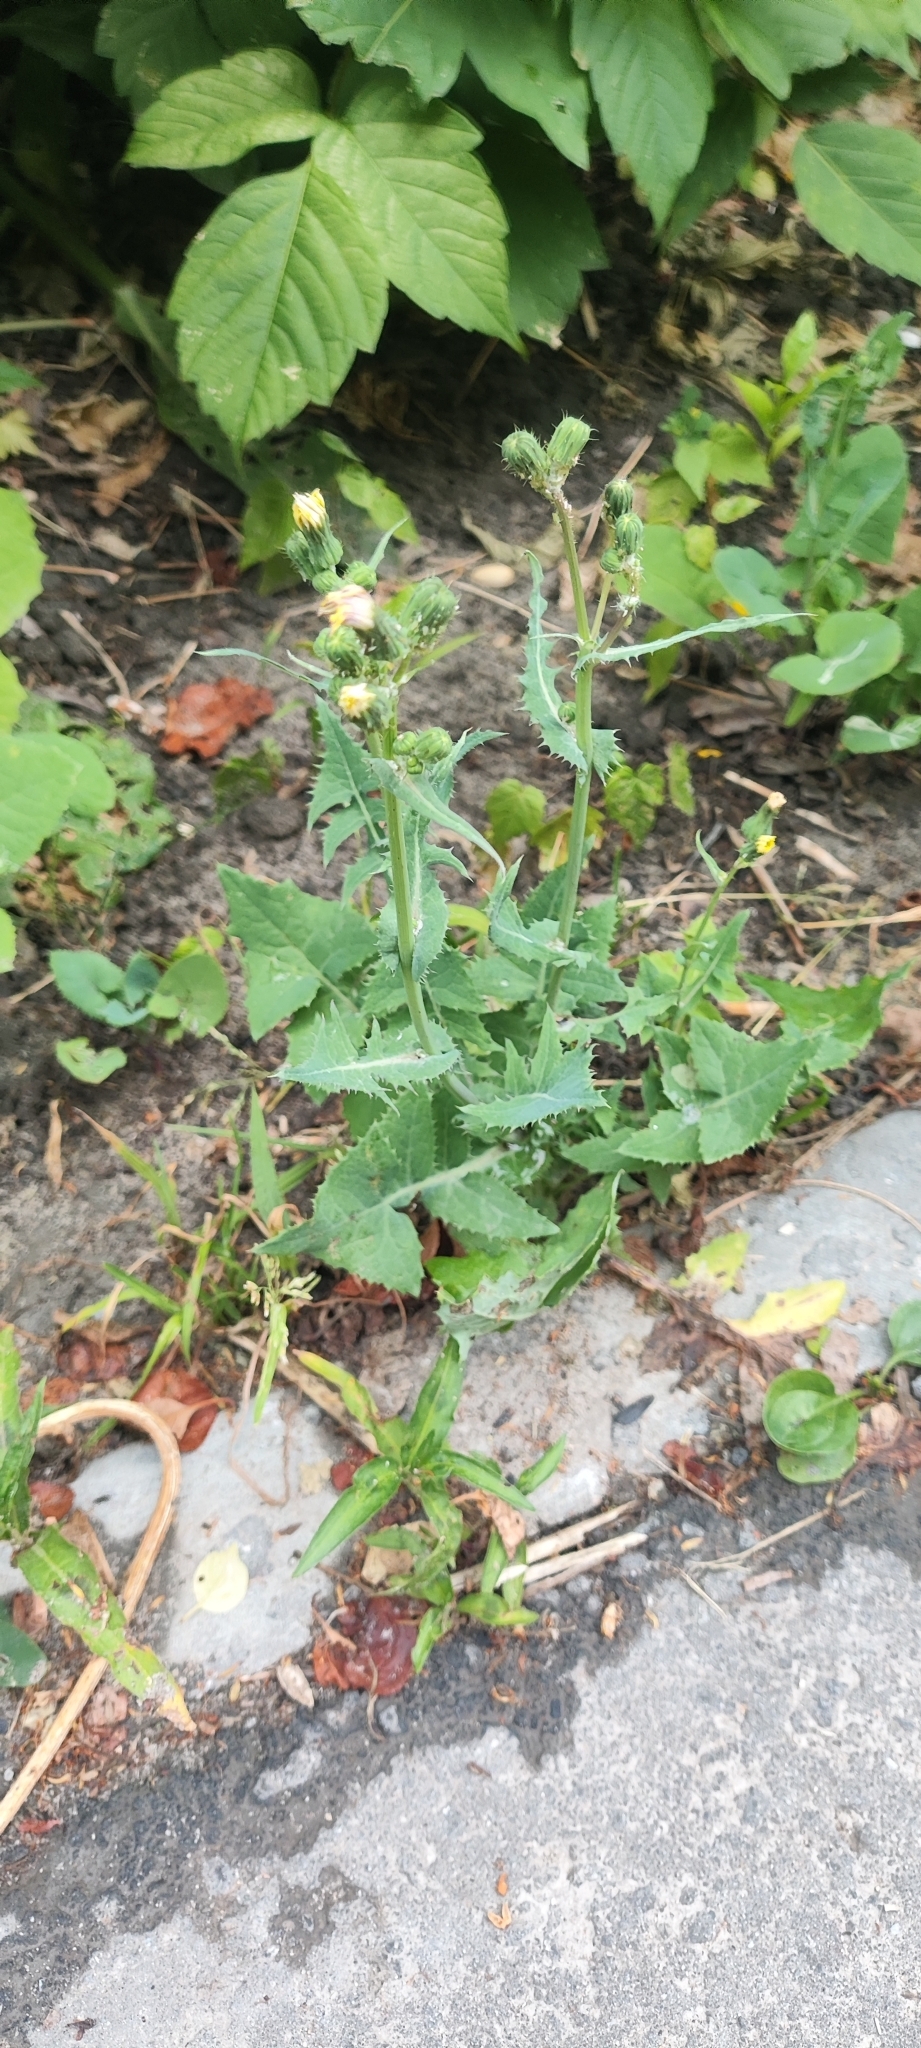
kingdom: Plantae
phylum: Tracheophyta
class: Magnoliopsida
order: Asterales
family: Asteraceae
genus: Sonchus
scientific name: Sonchus oleraceus
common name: Common sowthistle
